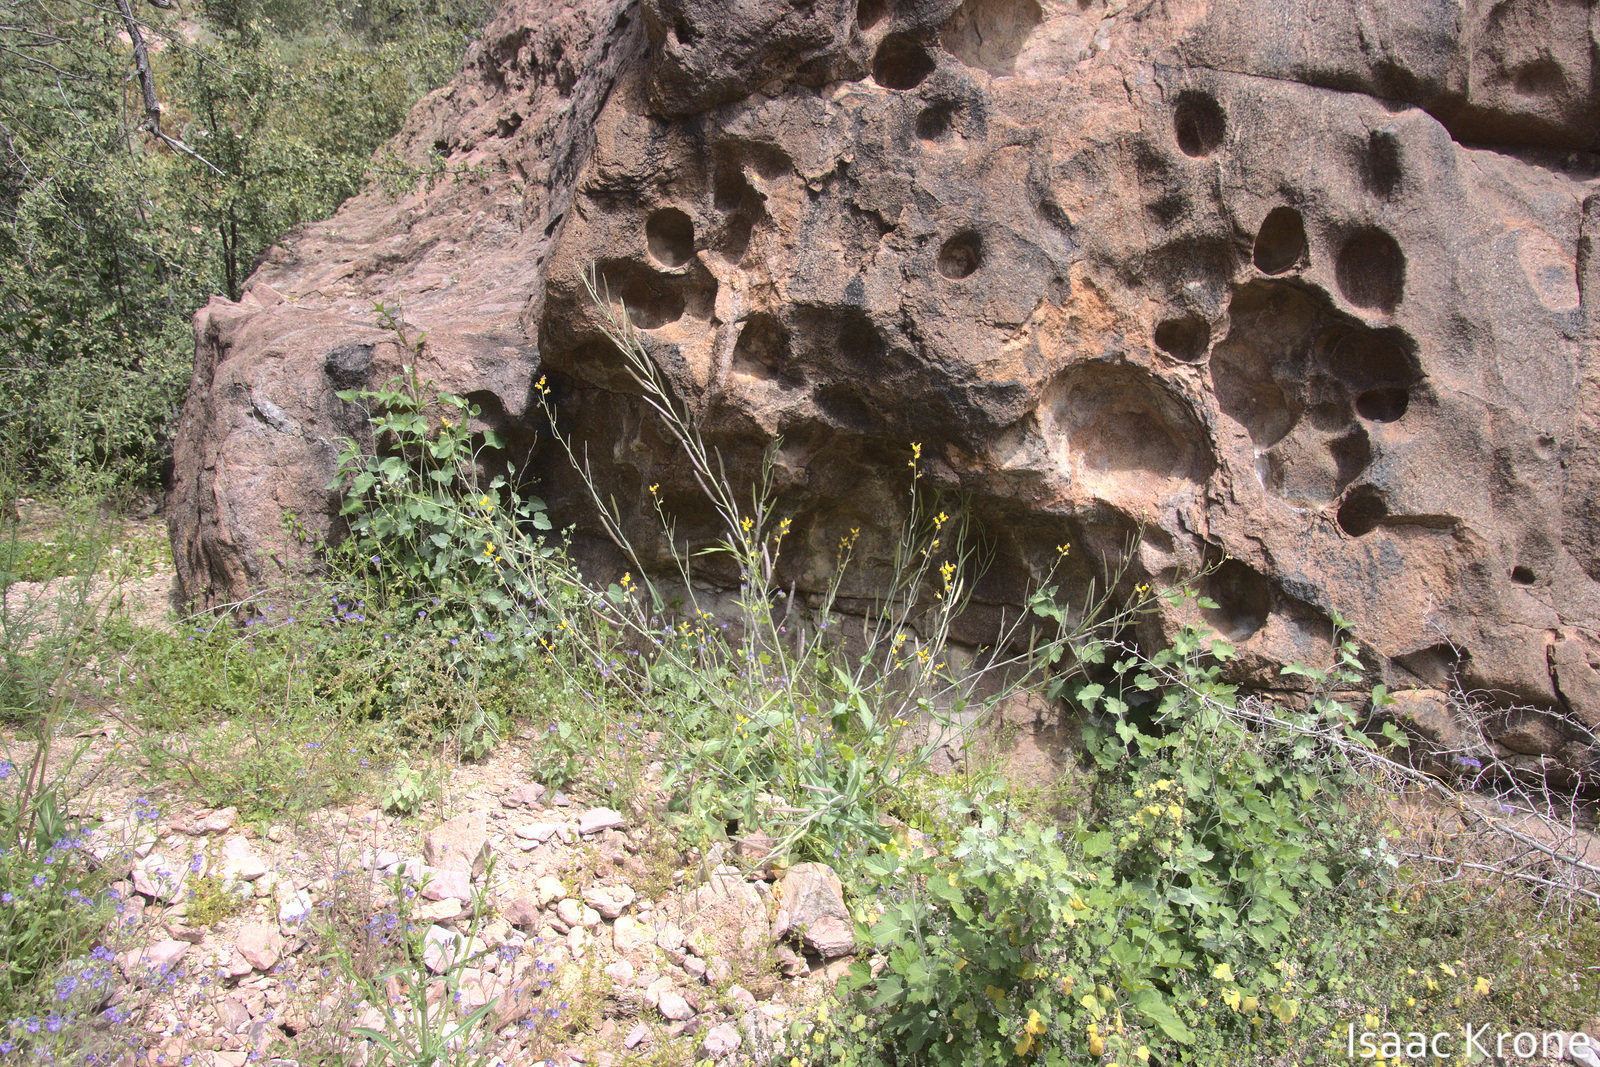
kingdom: Plantae
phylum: Tracheophyta
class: Magnoliopsida
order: Brassicales
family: Brassicaceae
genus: Streptanthus
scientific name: Streptanthus carinatus
